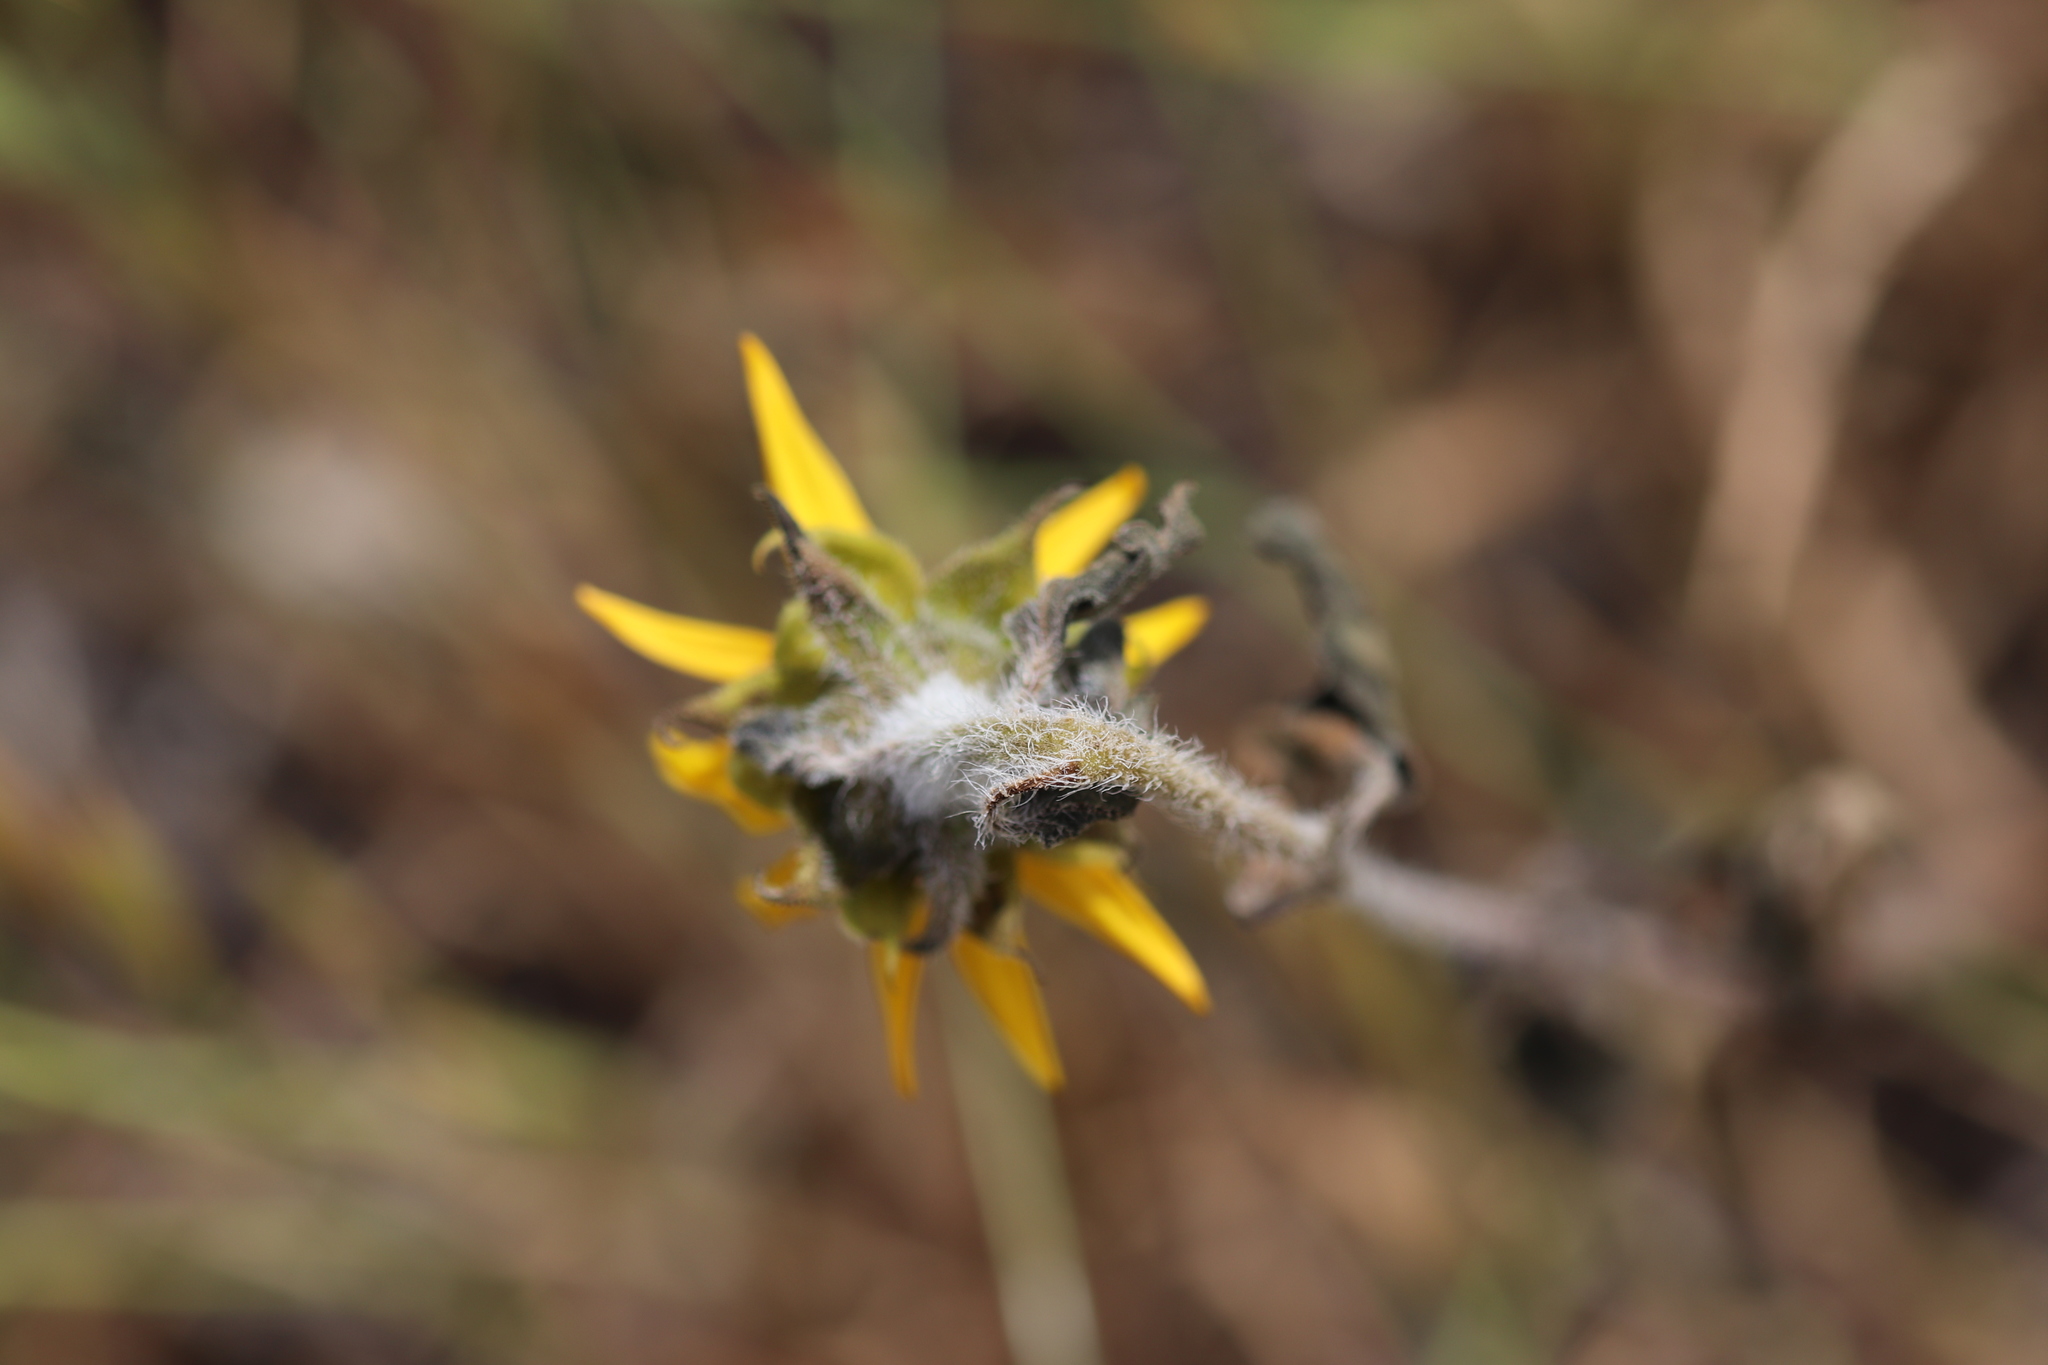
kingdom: Plantae
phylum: Tracheophyta
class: Magnoliopsida
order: Asterales
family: Asteraceae
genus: Helianthus
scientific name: Helianthus annuus
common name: Sunflower
